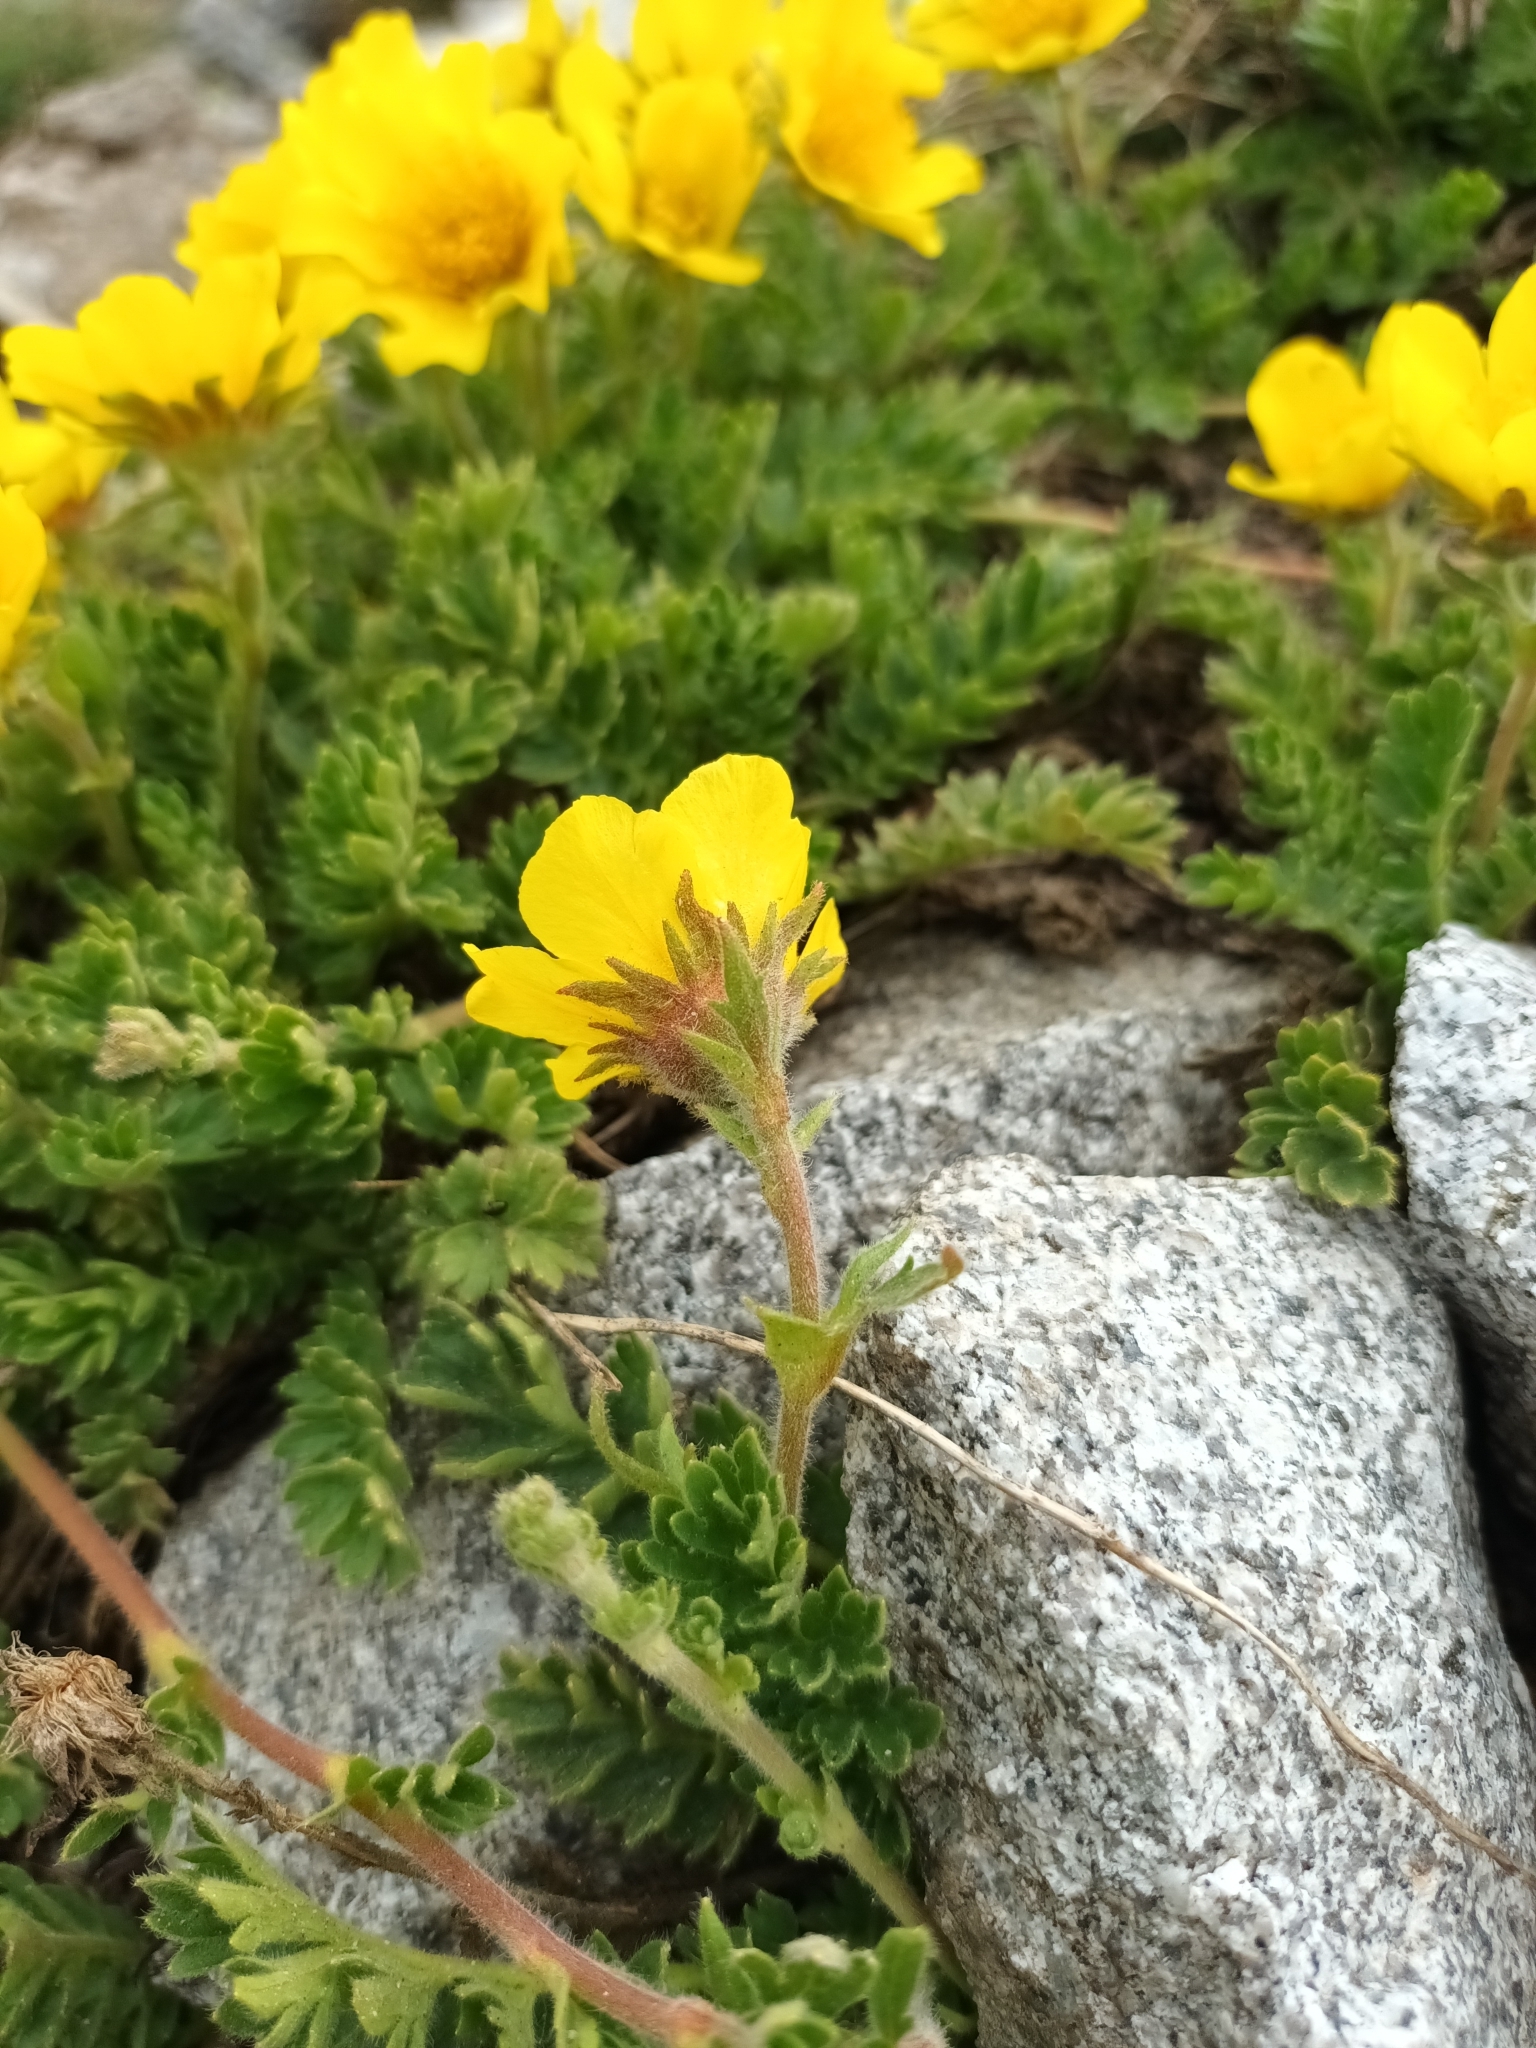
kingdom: Plantae
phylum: Tracheophyta
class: Magnoliopsida
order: Rosales
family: Rosaceae
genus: Geum
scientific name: Geum reptans
